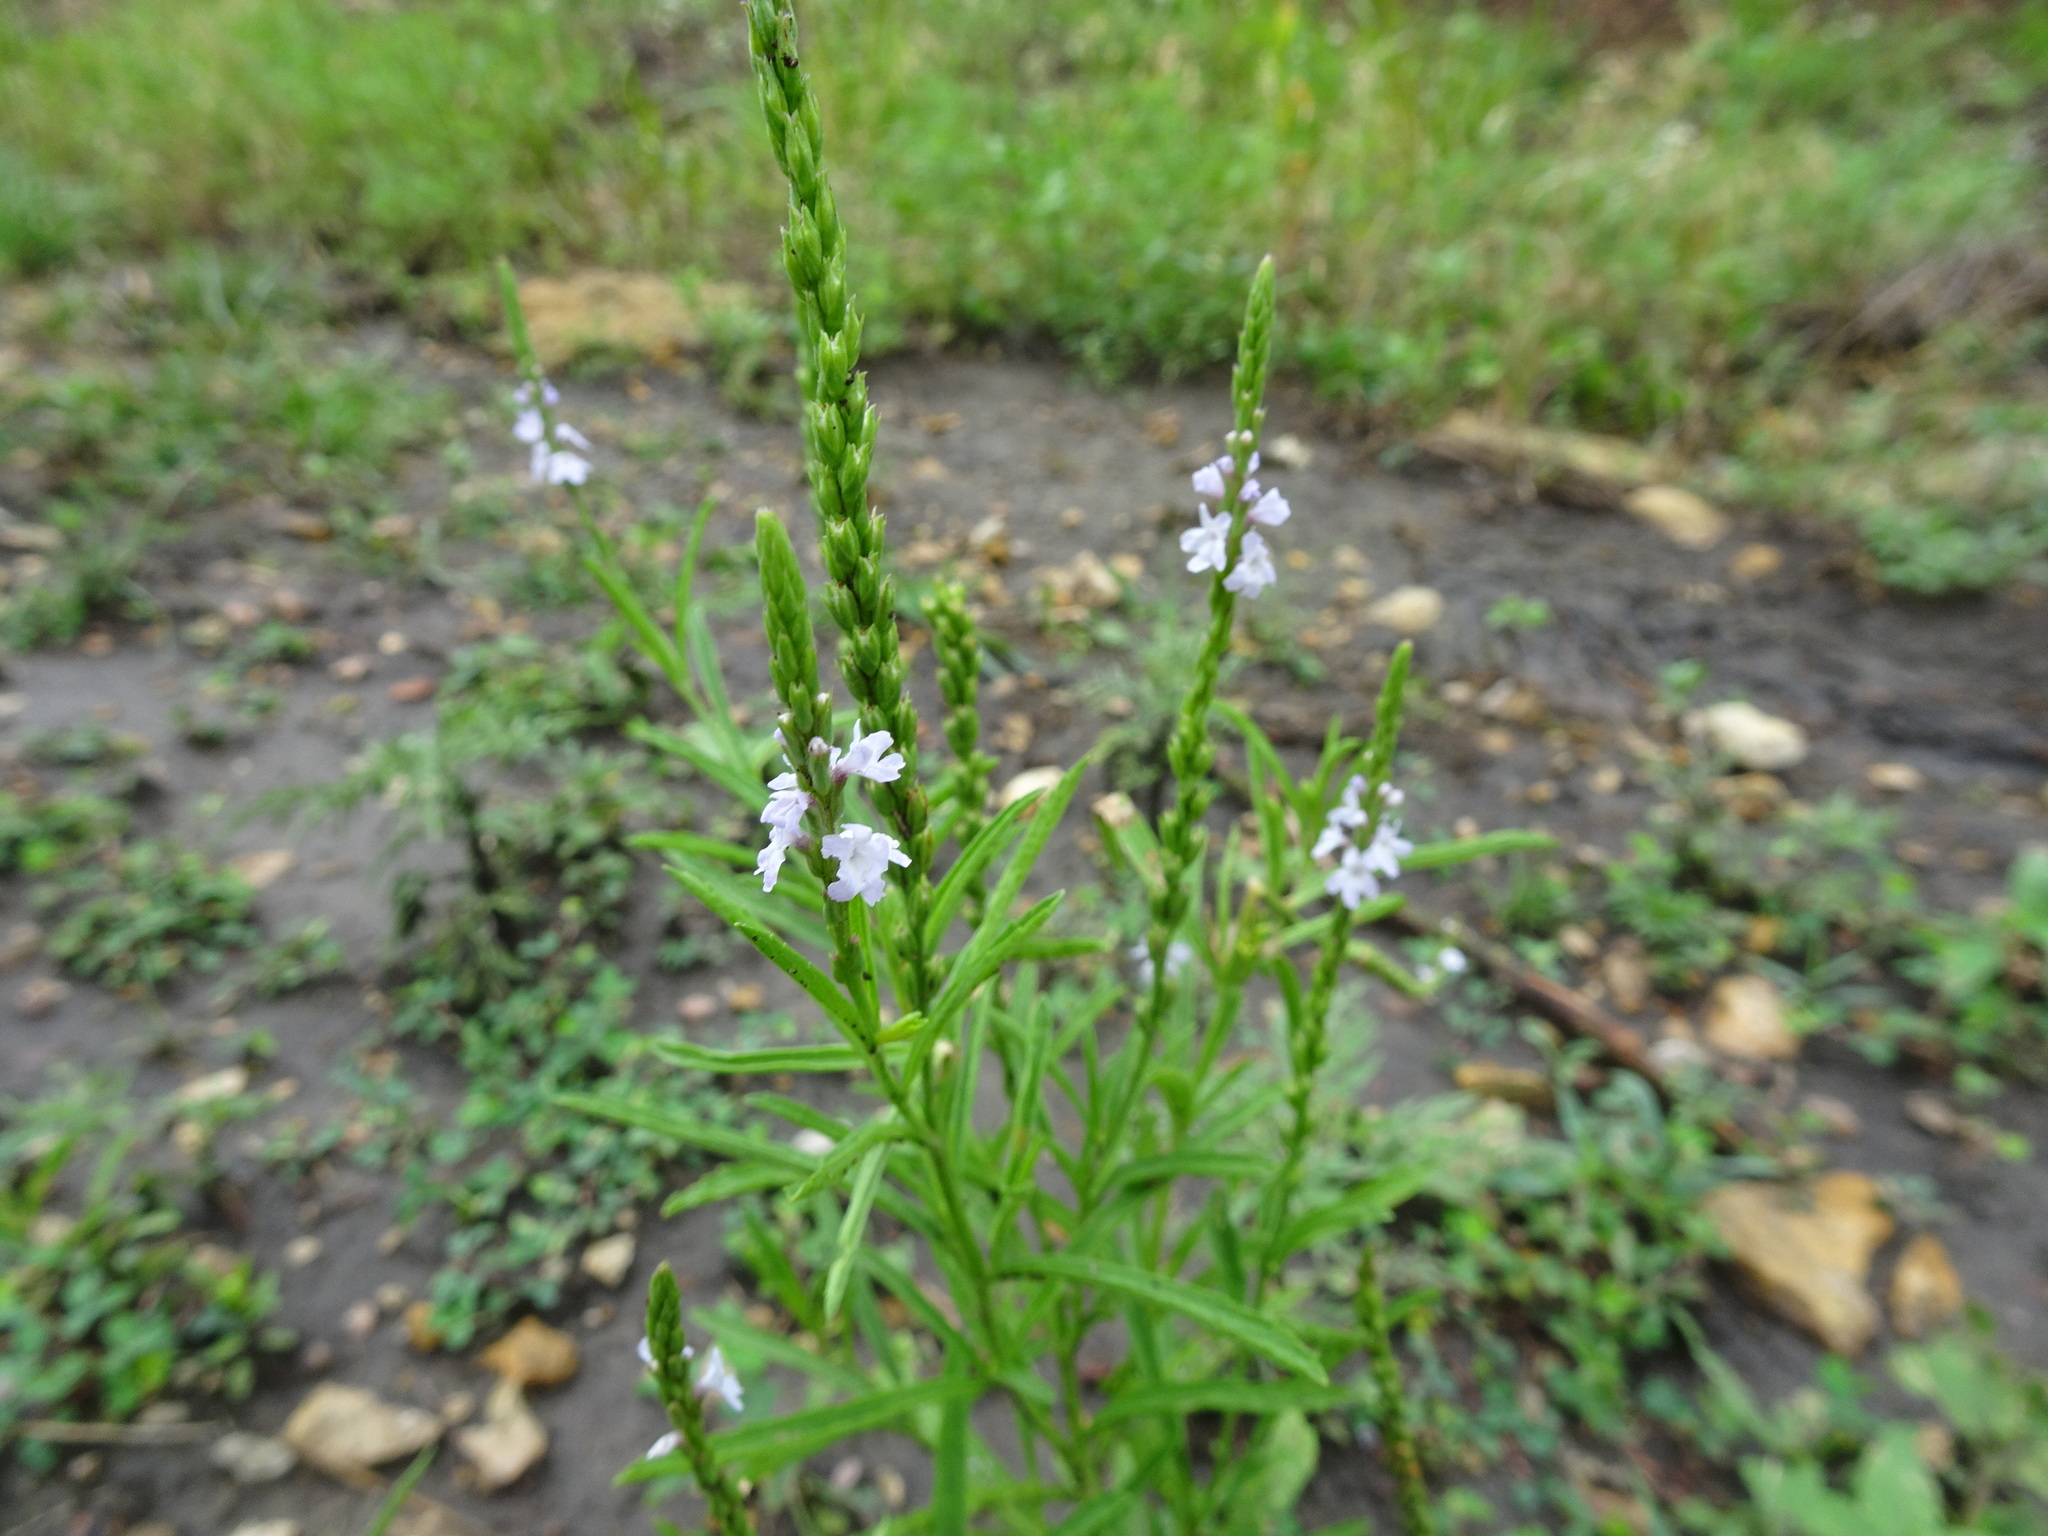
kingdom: Plantae
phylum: Tracheophyta
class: Magnoliopsida
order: Lamiales
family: Verbenaceae
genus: Verbena
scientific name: Verbena simplex
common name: Narrow-leaf vervain
